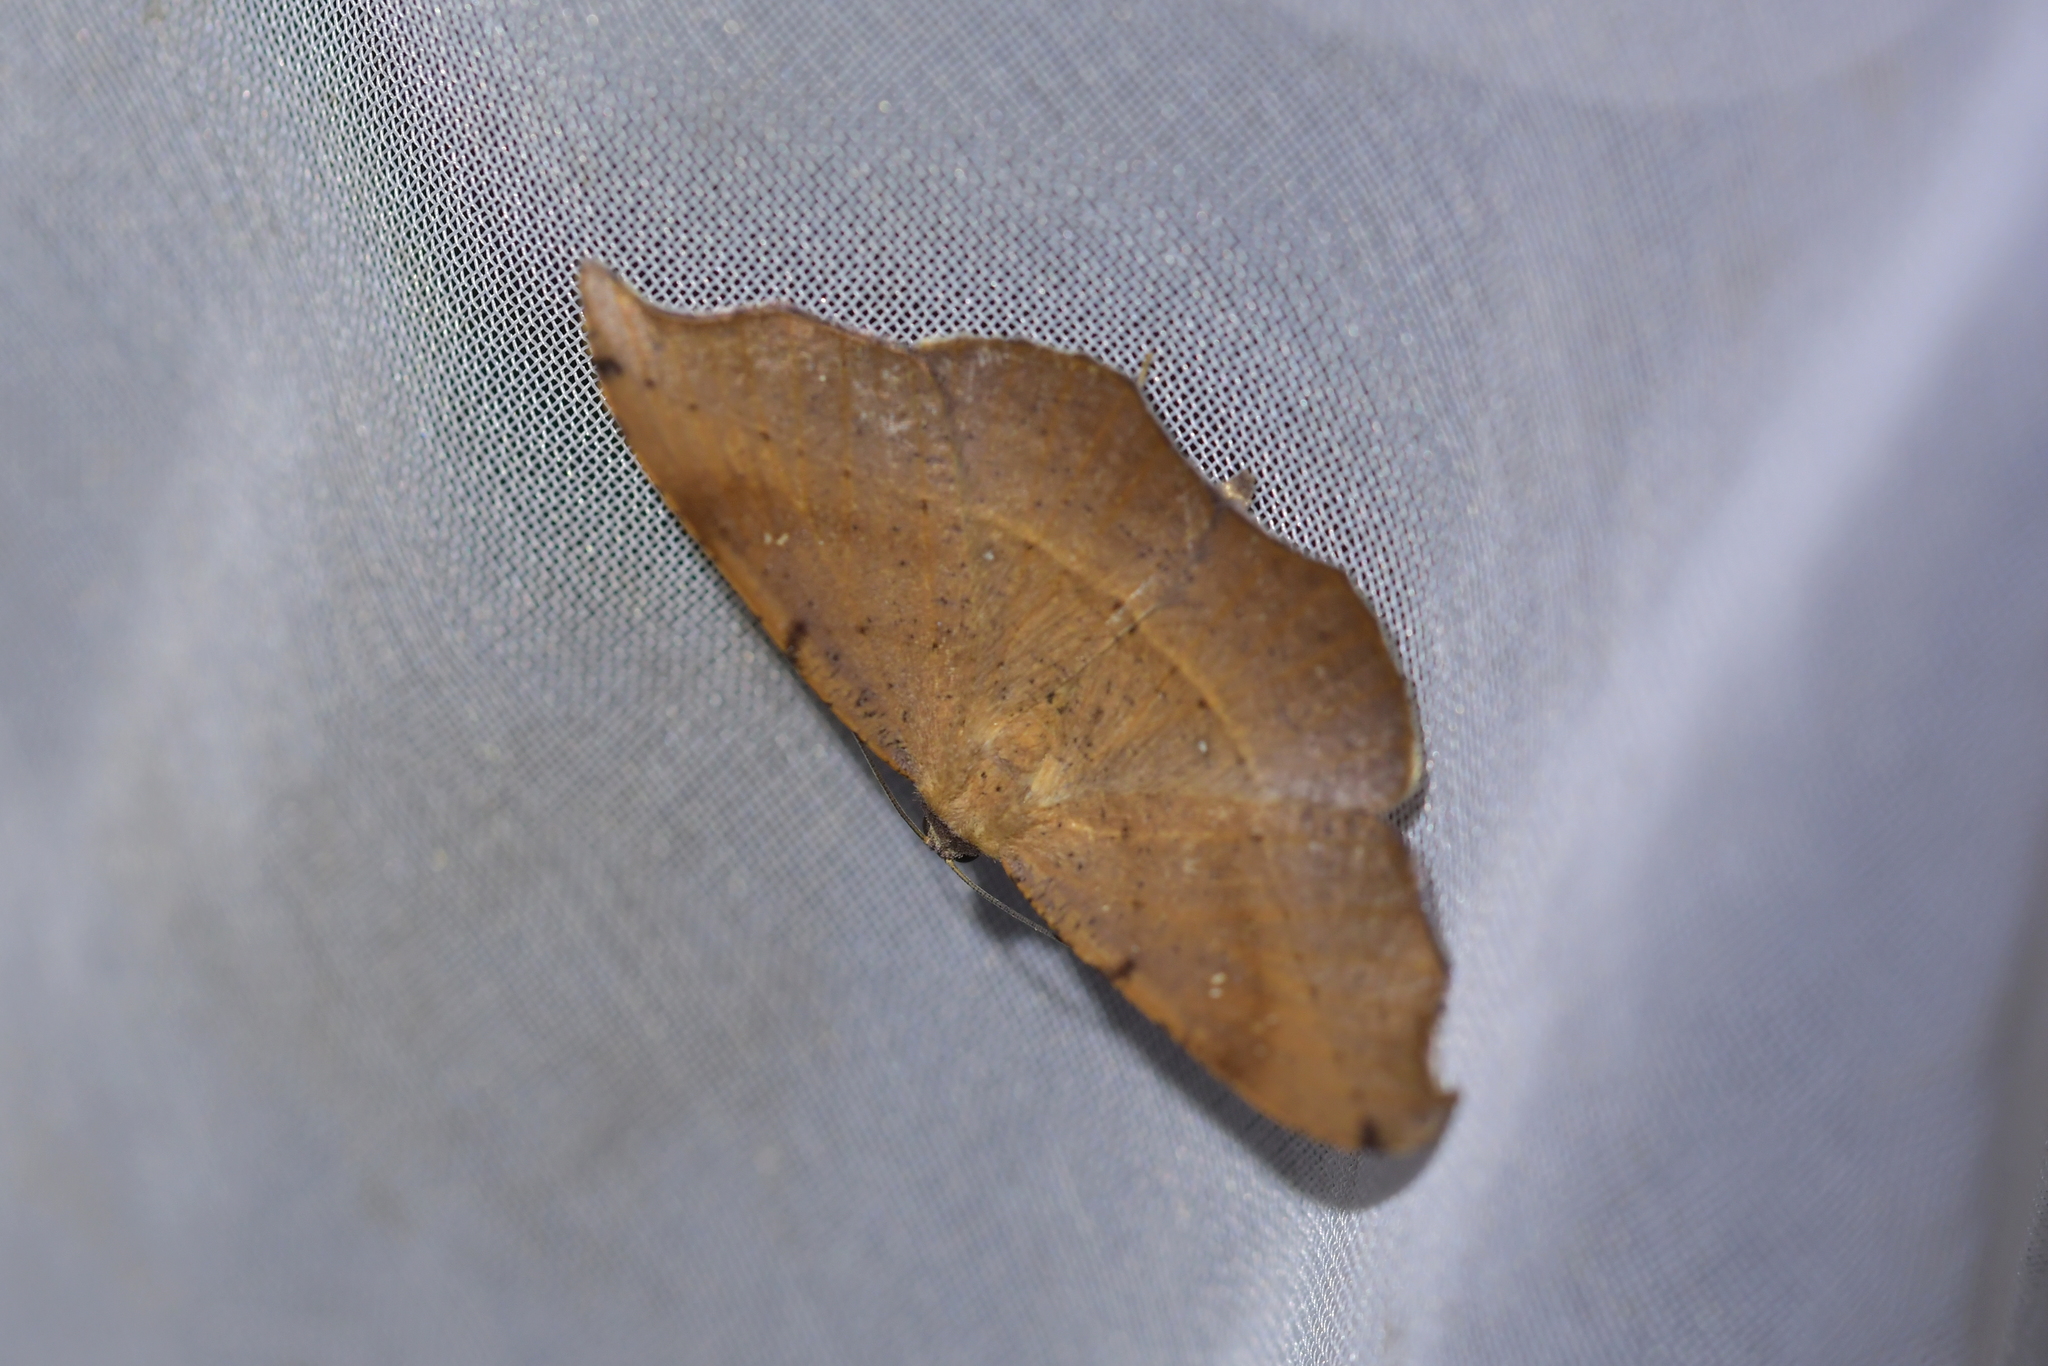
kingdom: Animalia
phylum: Arthropoda
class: Insecta
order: Lepidoptera
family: Geometridae
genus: Sarisa
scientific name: Sarisa muriferata
